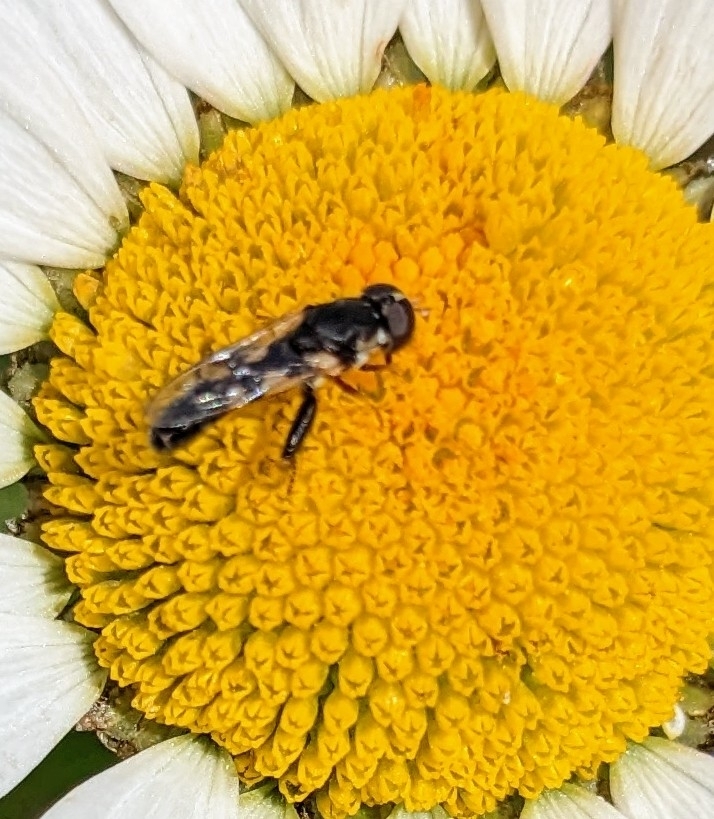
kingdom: Animalia
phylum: Arthropoda
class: Insecta
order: Diptera
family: Syrphidae
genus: Syritta
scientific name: Syritta pipiens
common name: Hover fly
